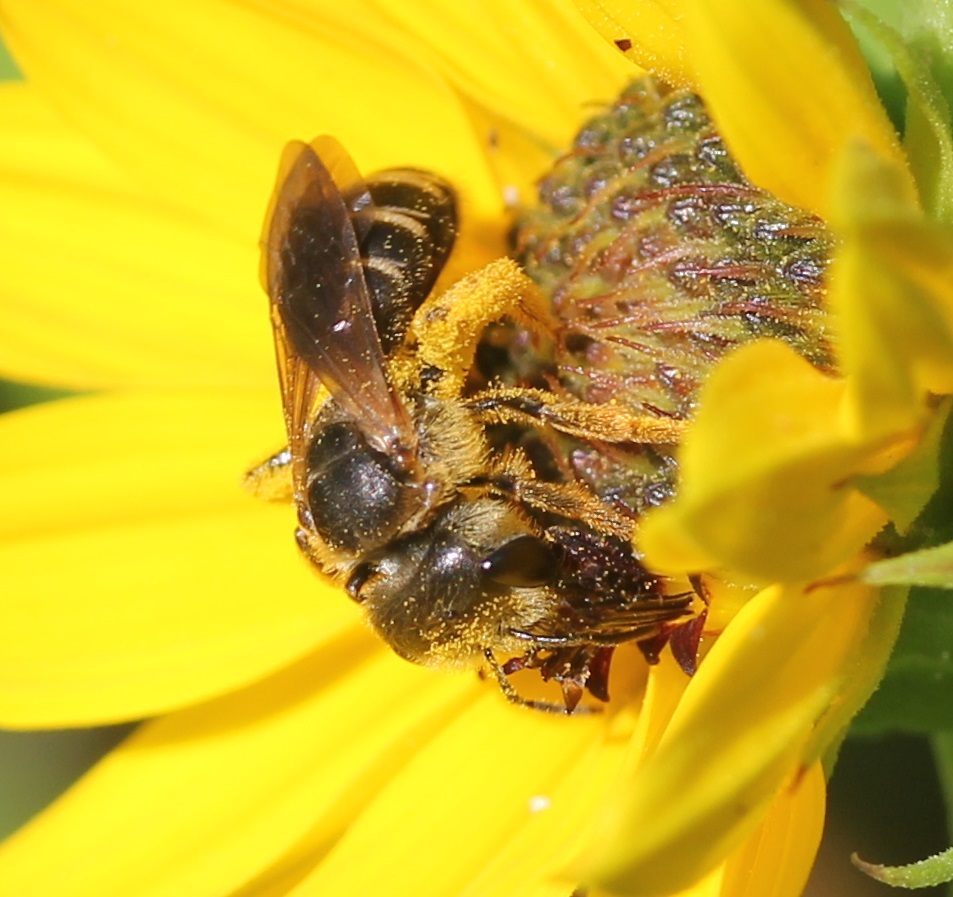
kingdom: Animalia
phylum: Arthropoda
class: Insecta
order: Hymenoptera
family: Halictidae
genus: Halictus
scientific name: Halictus poeyi
